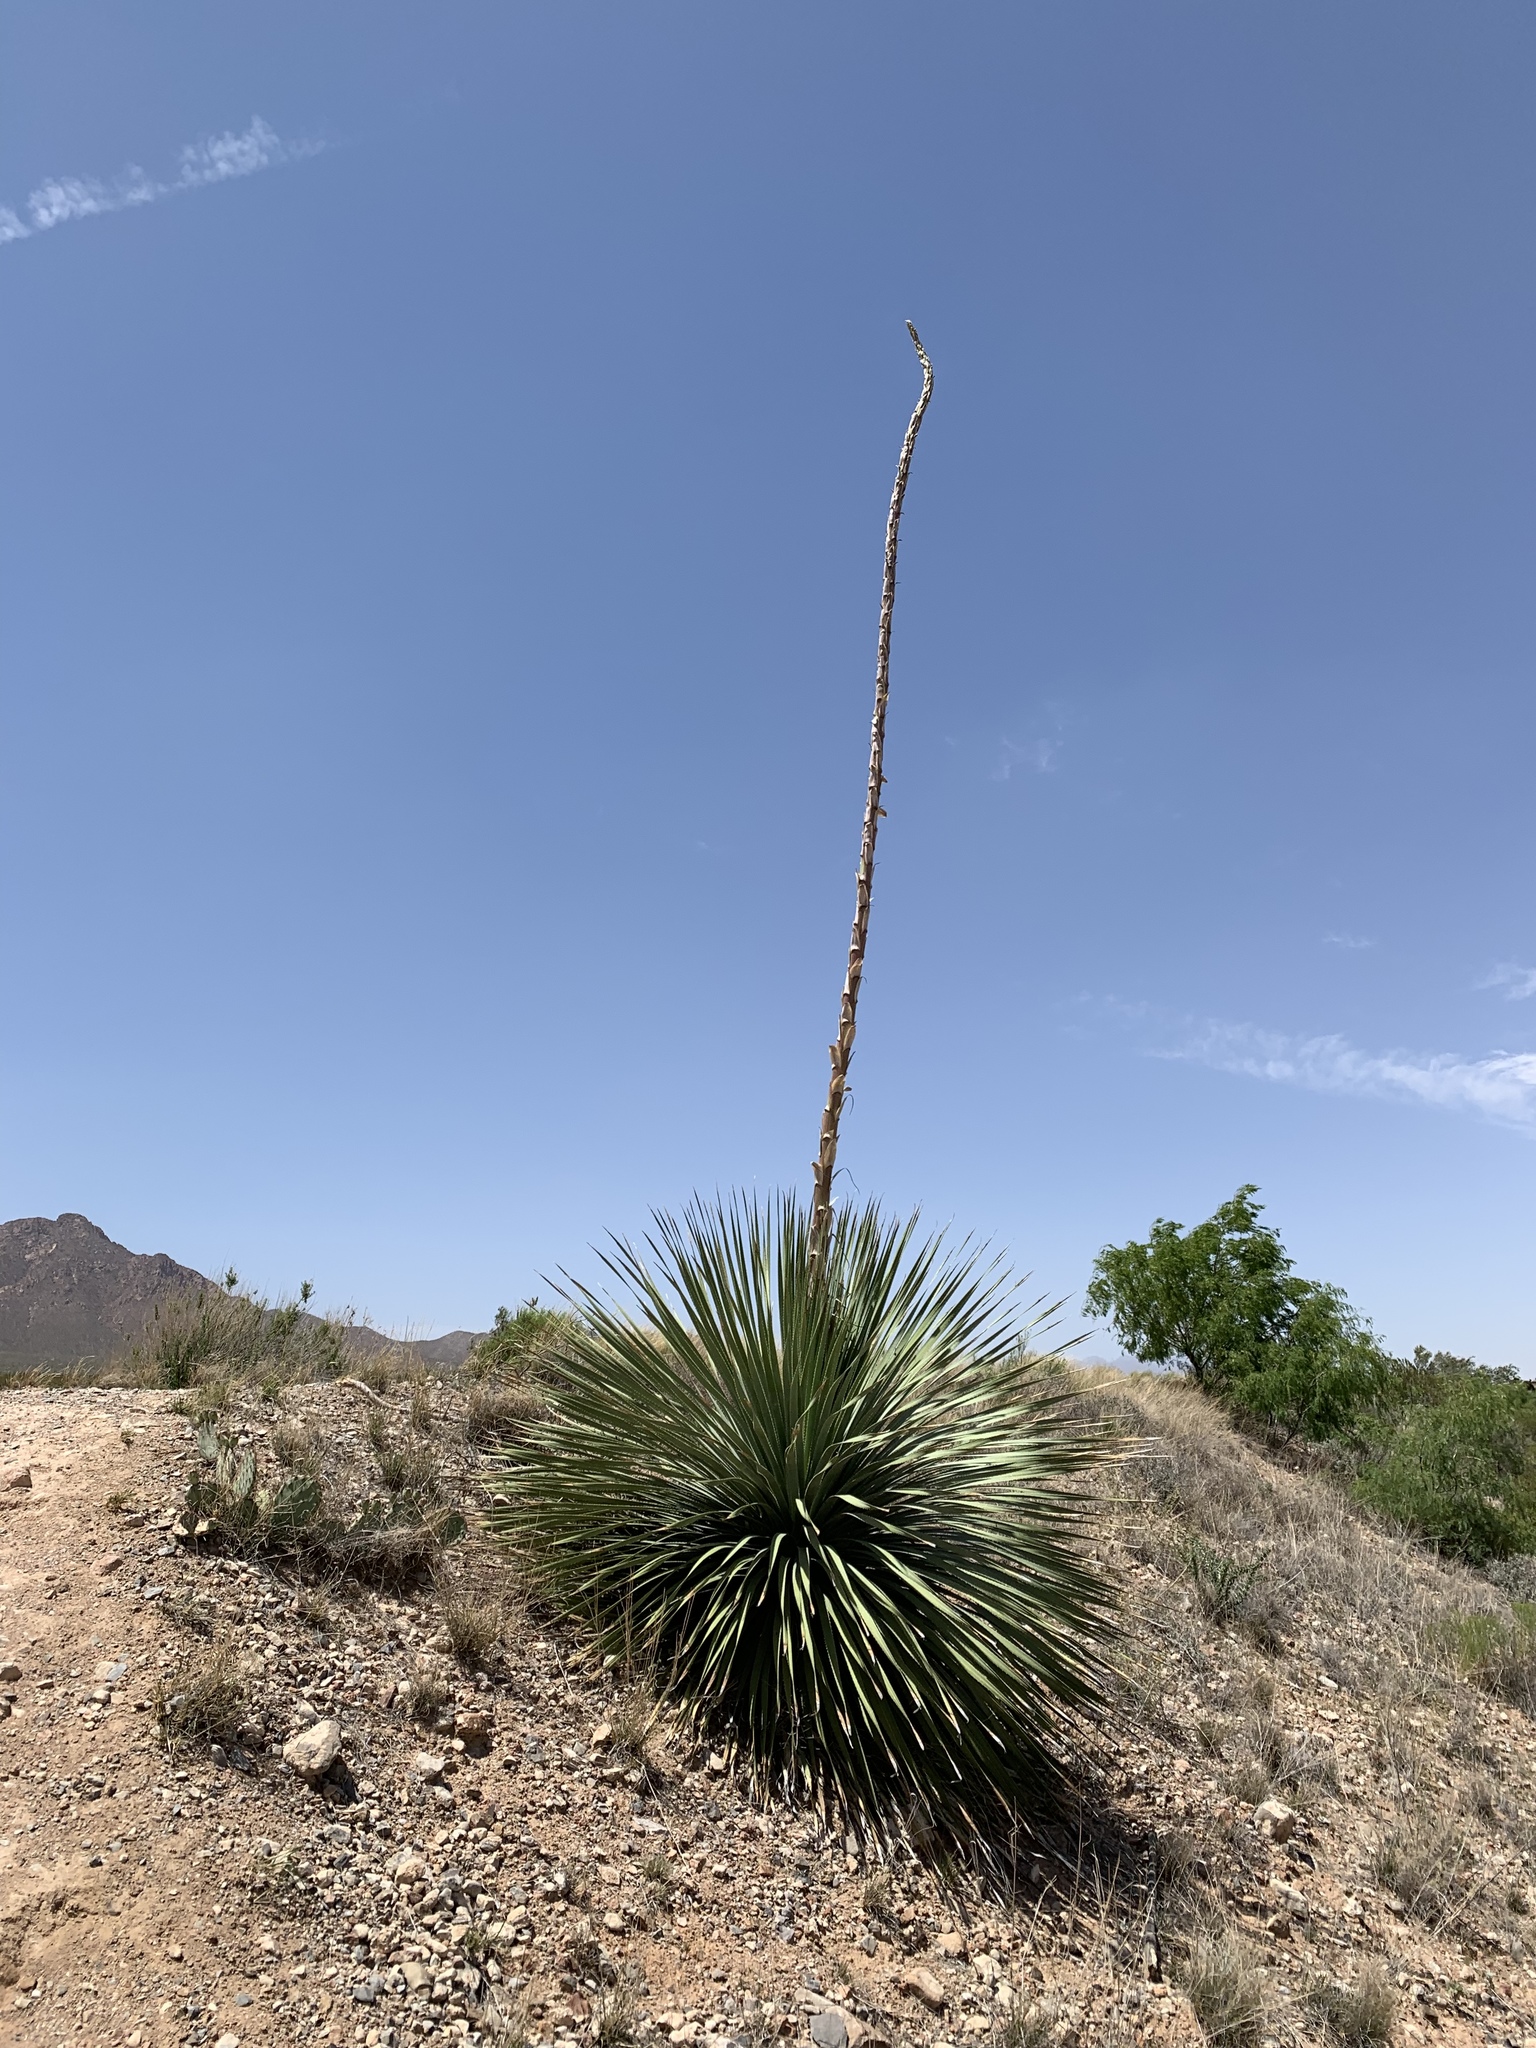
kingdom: Plantae
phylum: Tracheophyta
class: Liliopsida
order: Asparagales
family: Asparagaceae
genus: Dasylirion
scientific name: Dasylirion wheeleri
